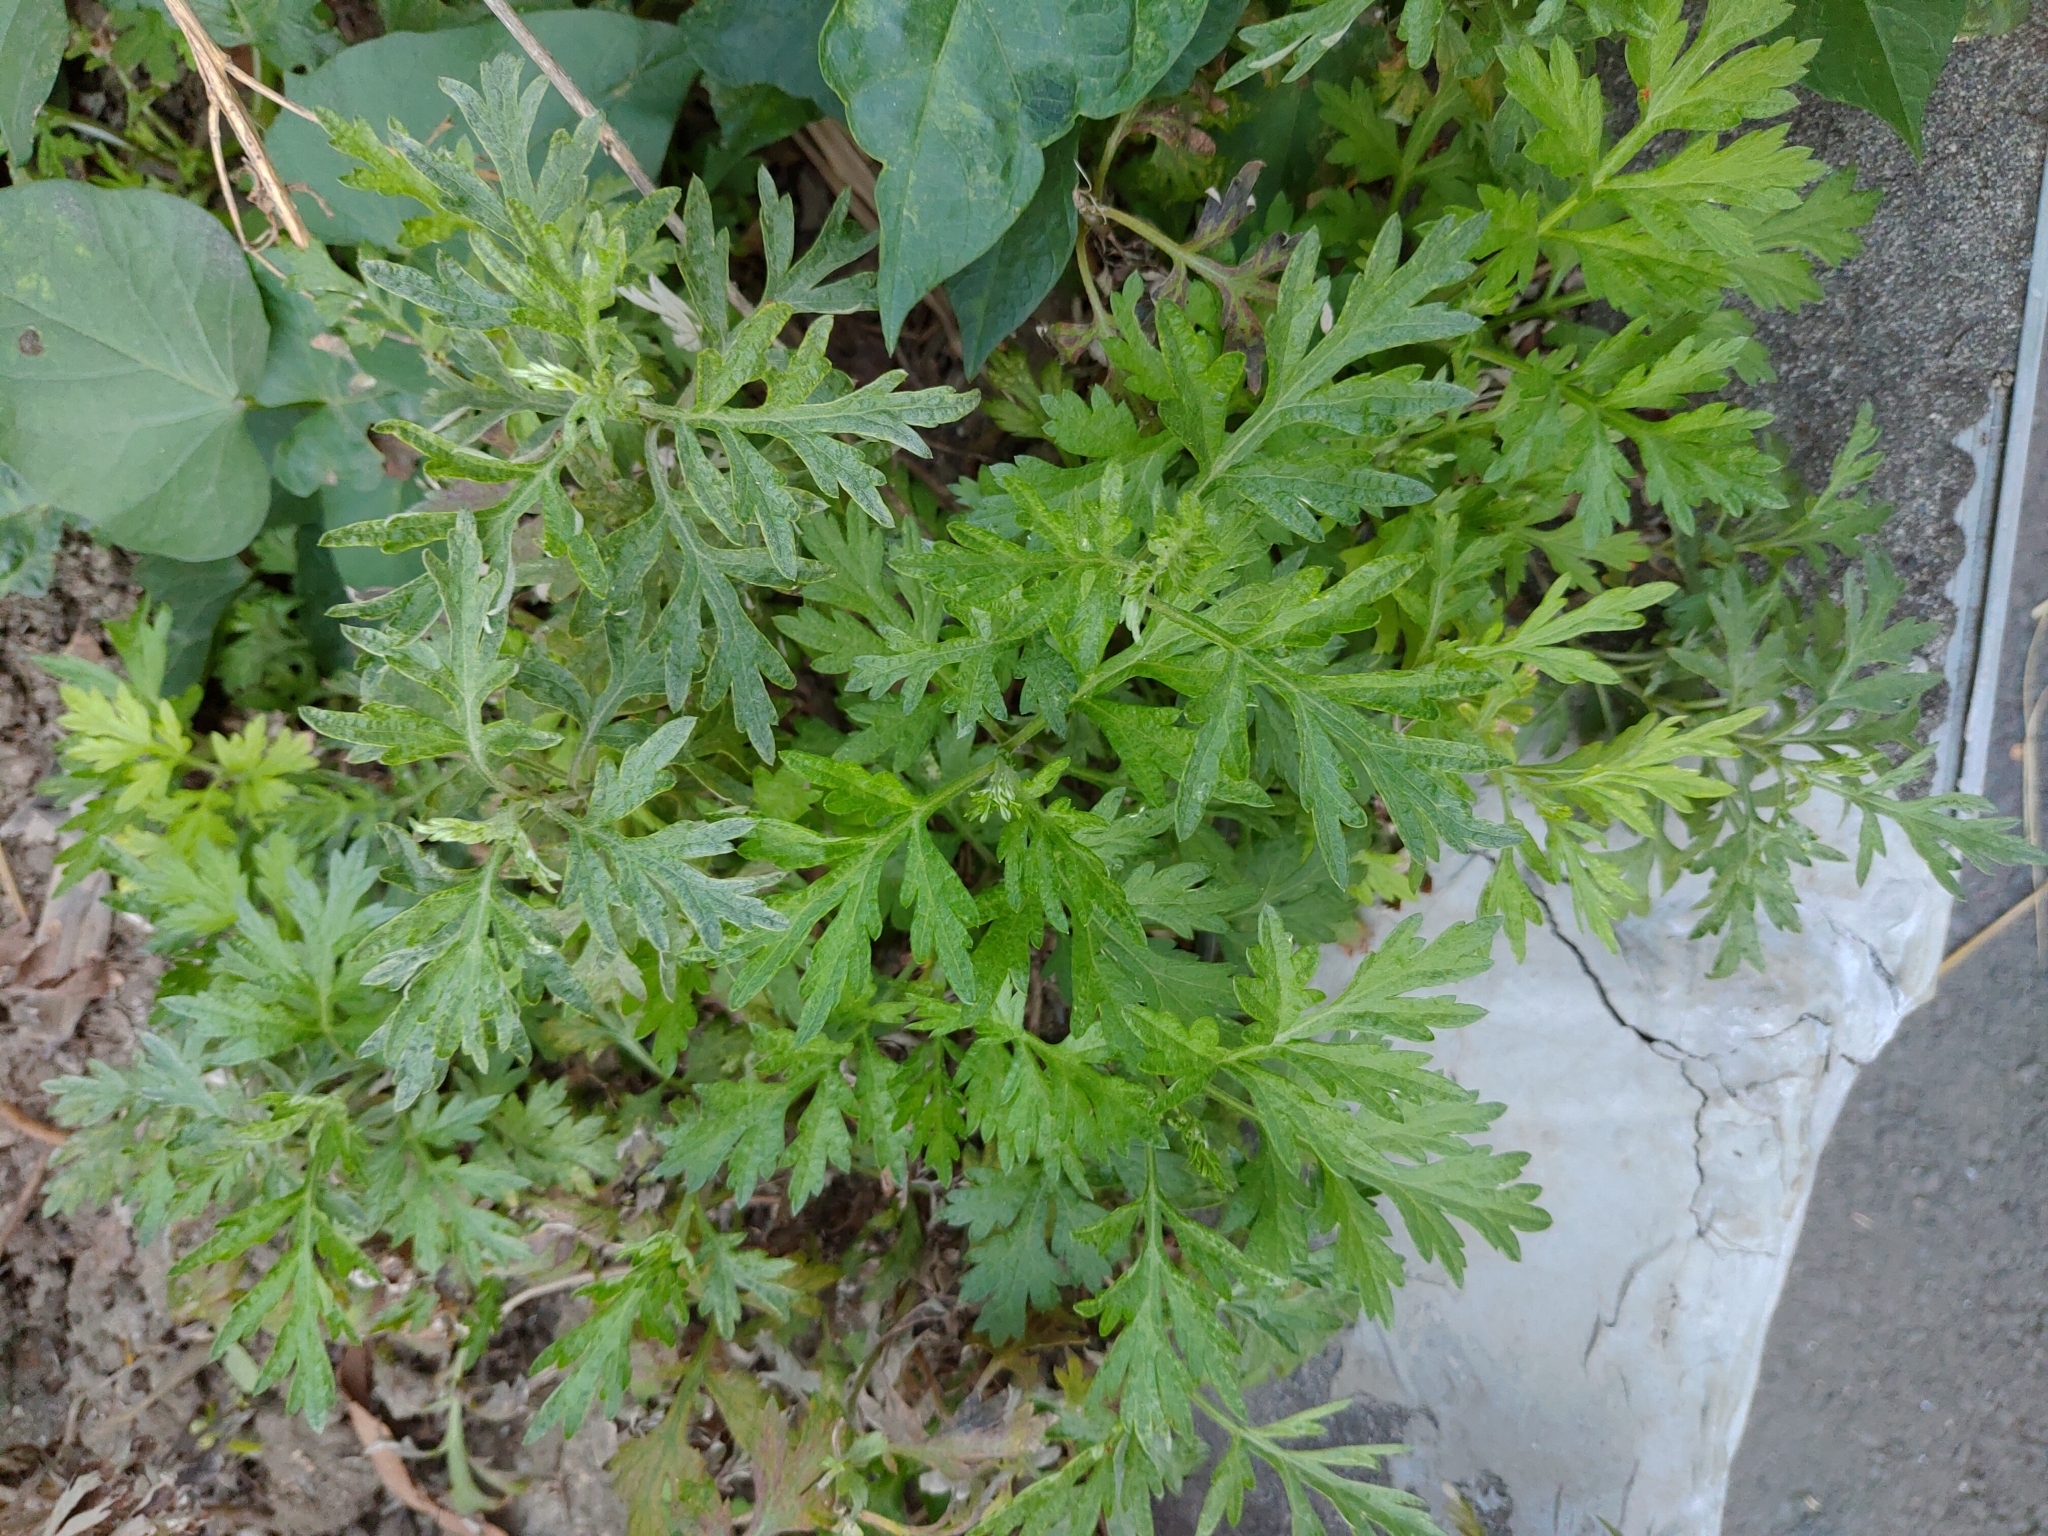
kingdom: Plantae
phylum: Tracheophyta
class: Magnoliopsida
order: Asterales
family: Asteraceae
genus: Artemisia
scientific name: Artemisia indica
